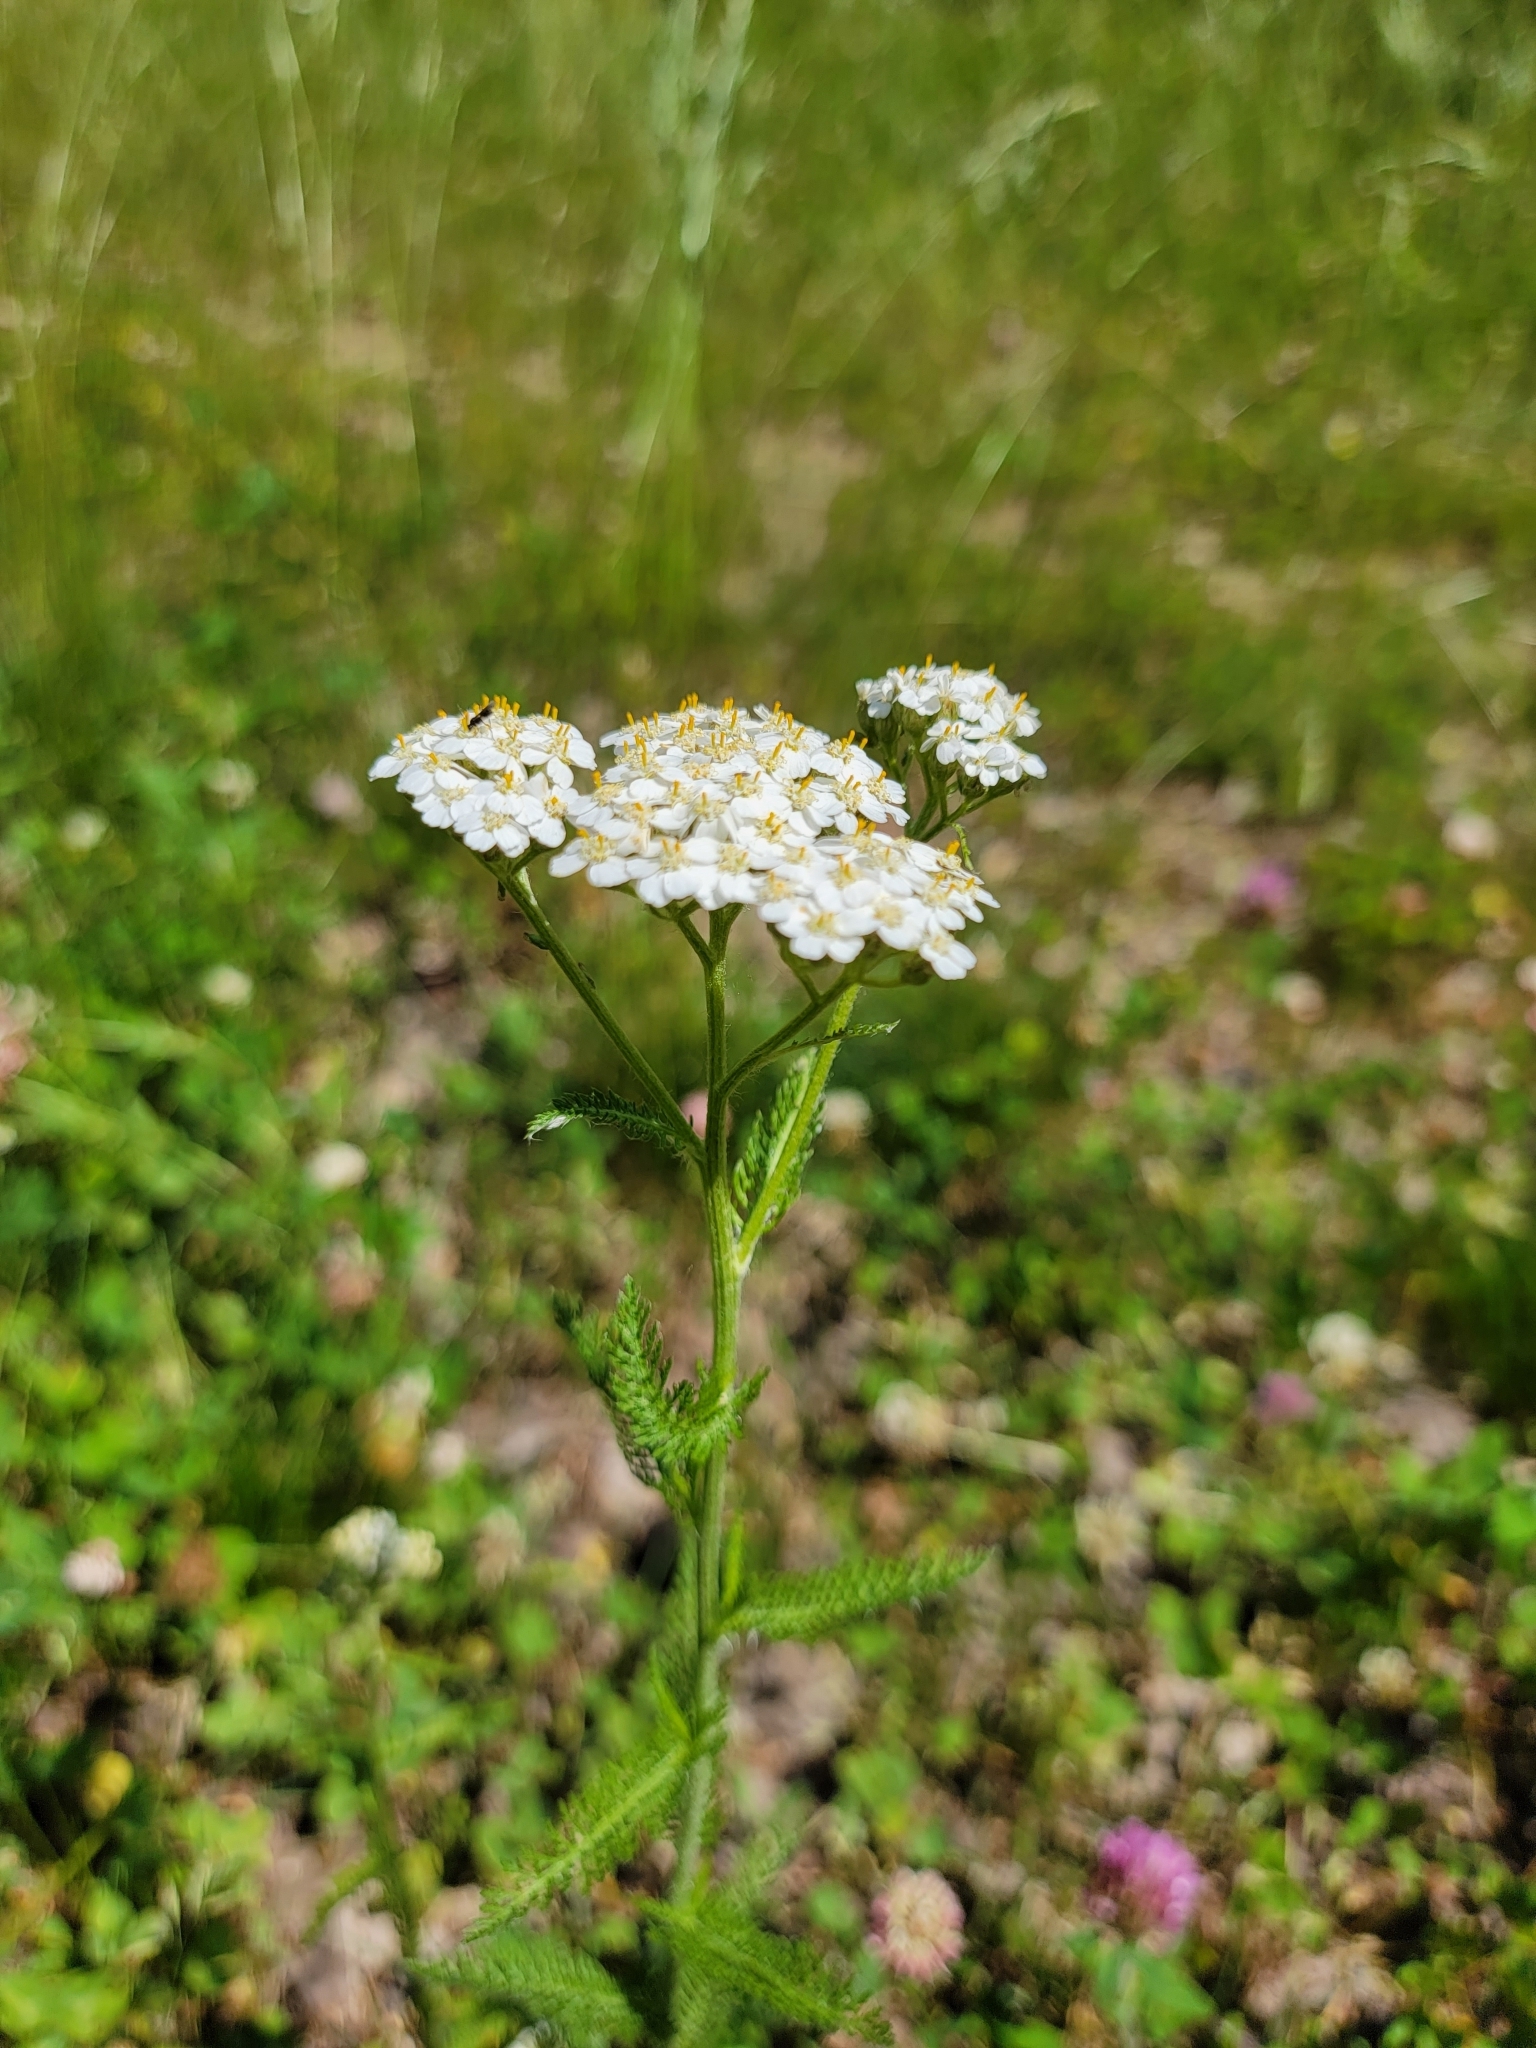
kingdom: Plantae
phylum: Tracheophyta
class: Magnoliopsida
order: Asterales
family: Asteraceae
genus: Achillea
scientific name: Achillea millefolium
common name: Yarrow
